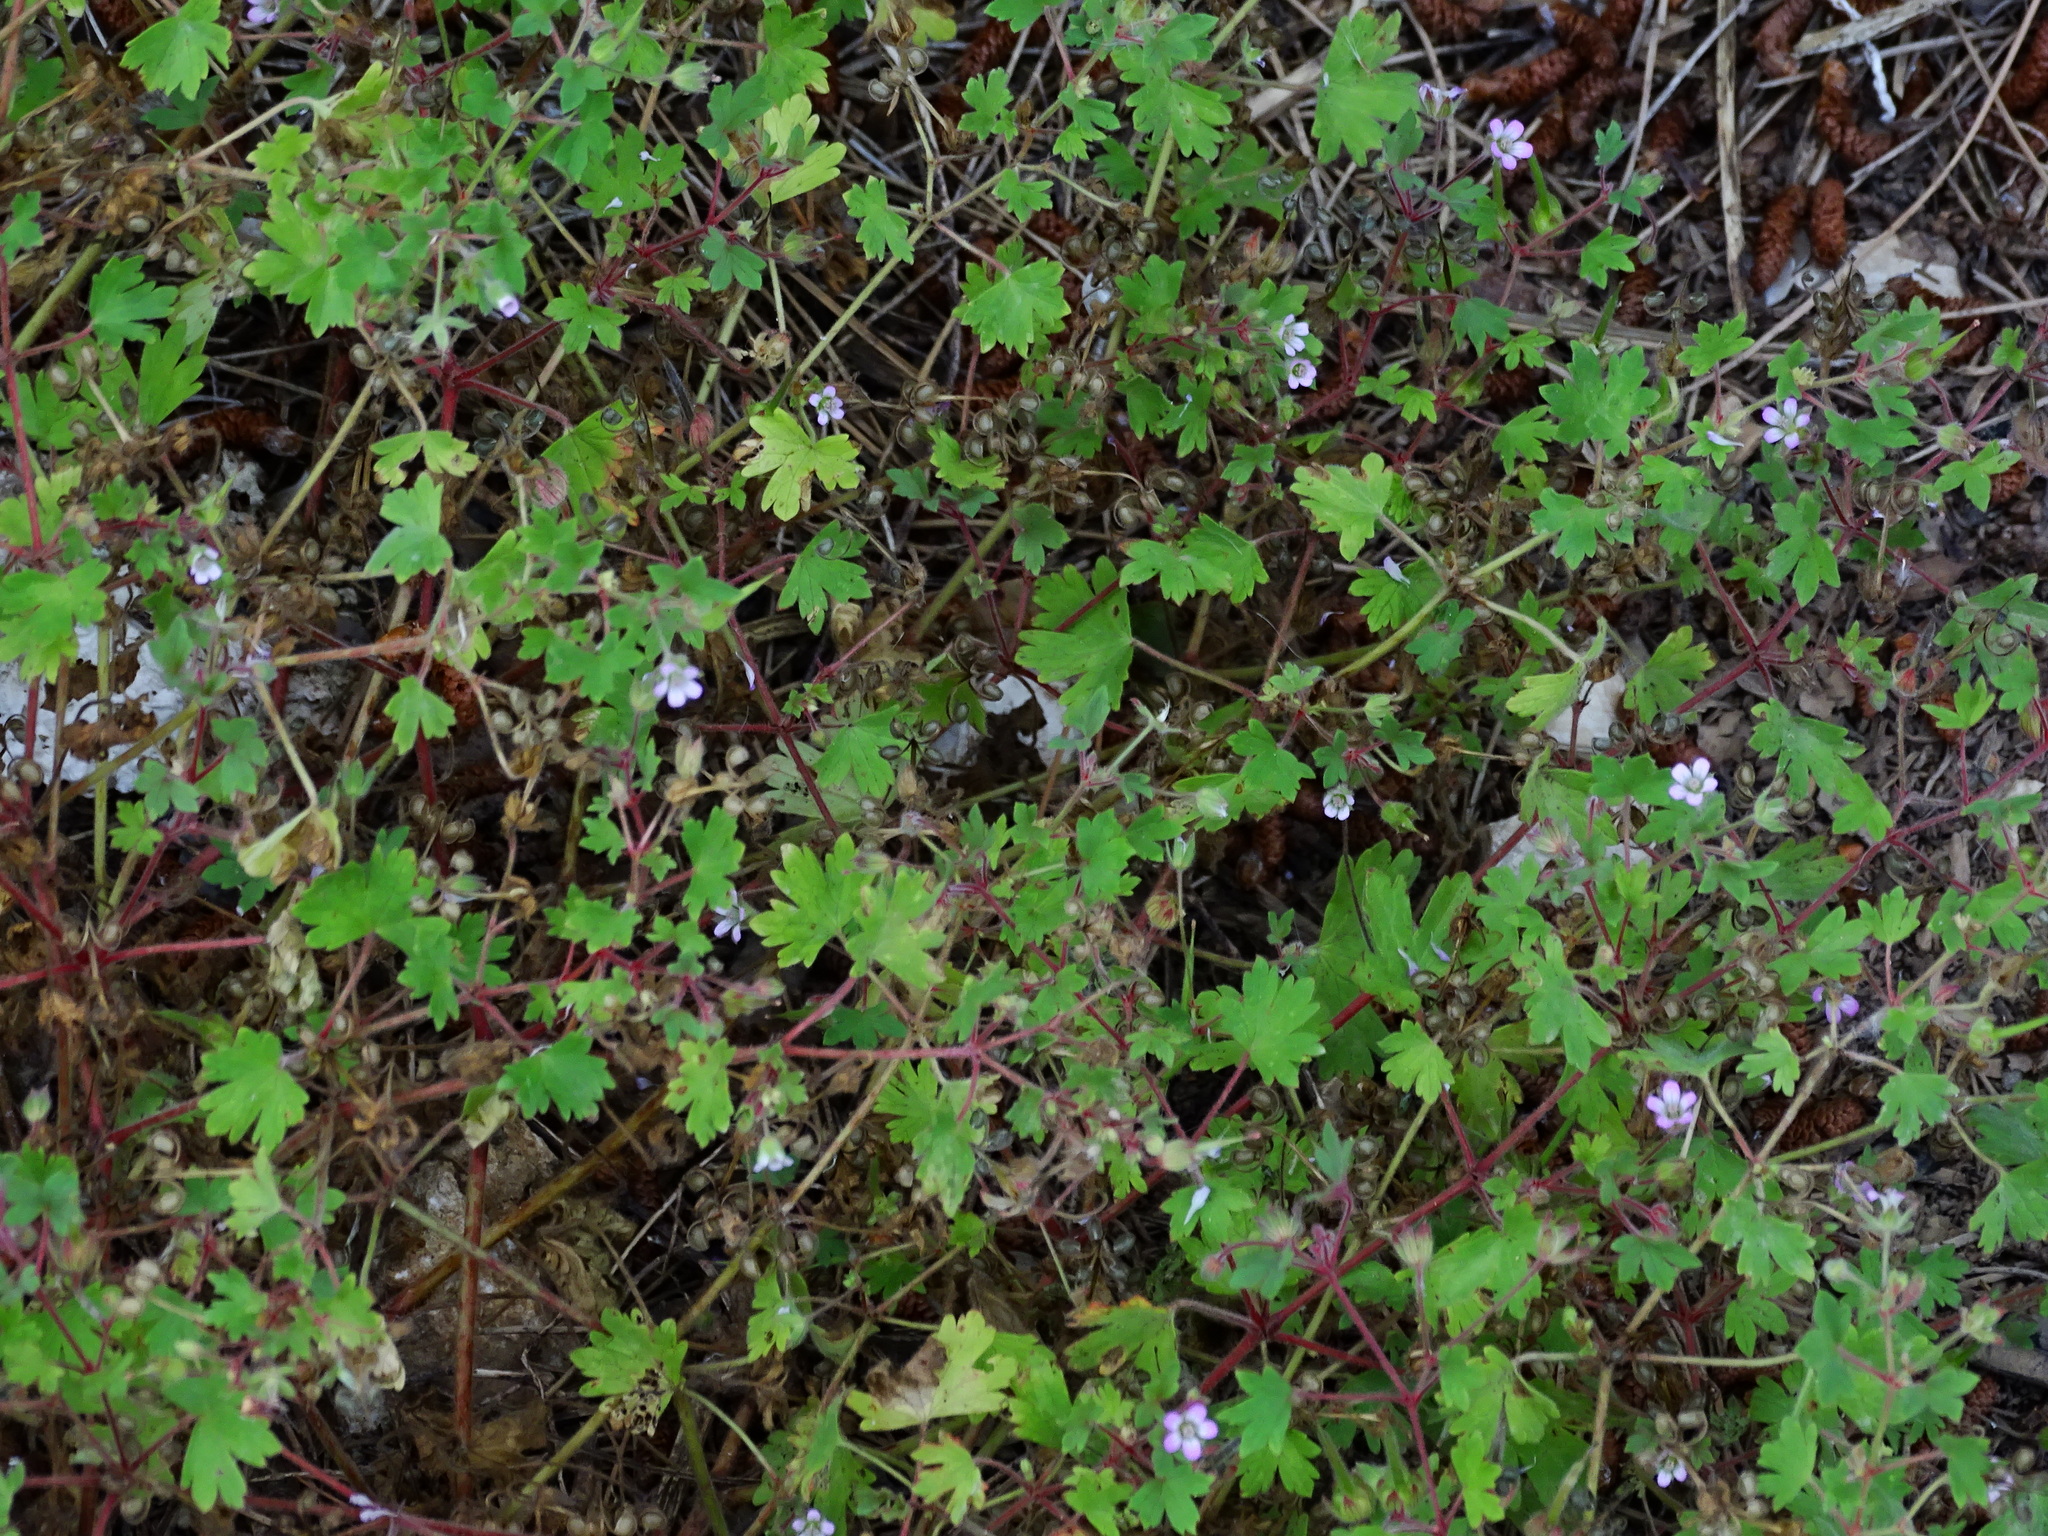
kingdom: Plantae
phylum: Tracheophyta
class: Magnoliopsida
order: Geraniales
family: Geraniaceae
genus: Geranium
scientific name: Geranium rotundifolium
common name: Round-leaved crane's-bill
